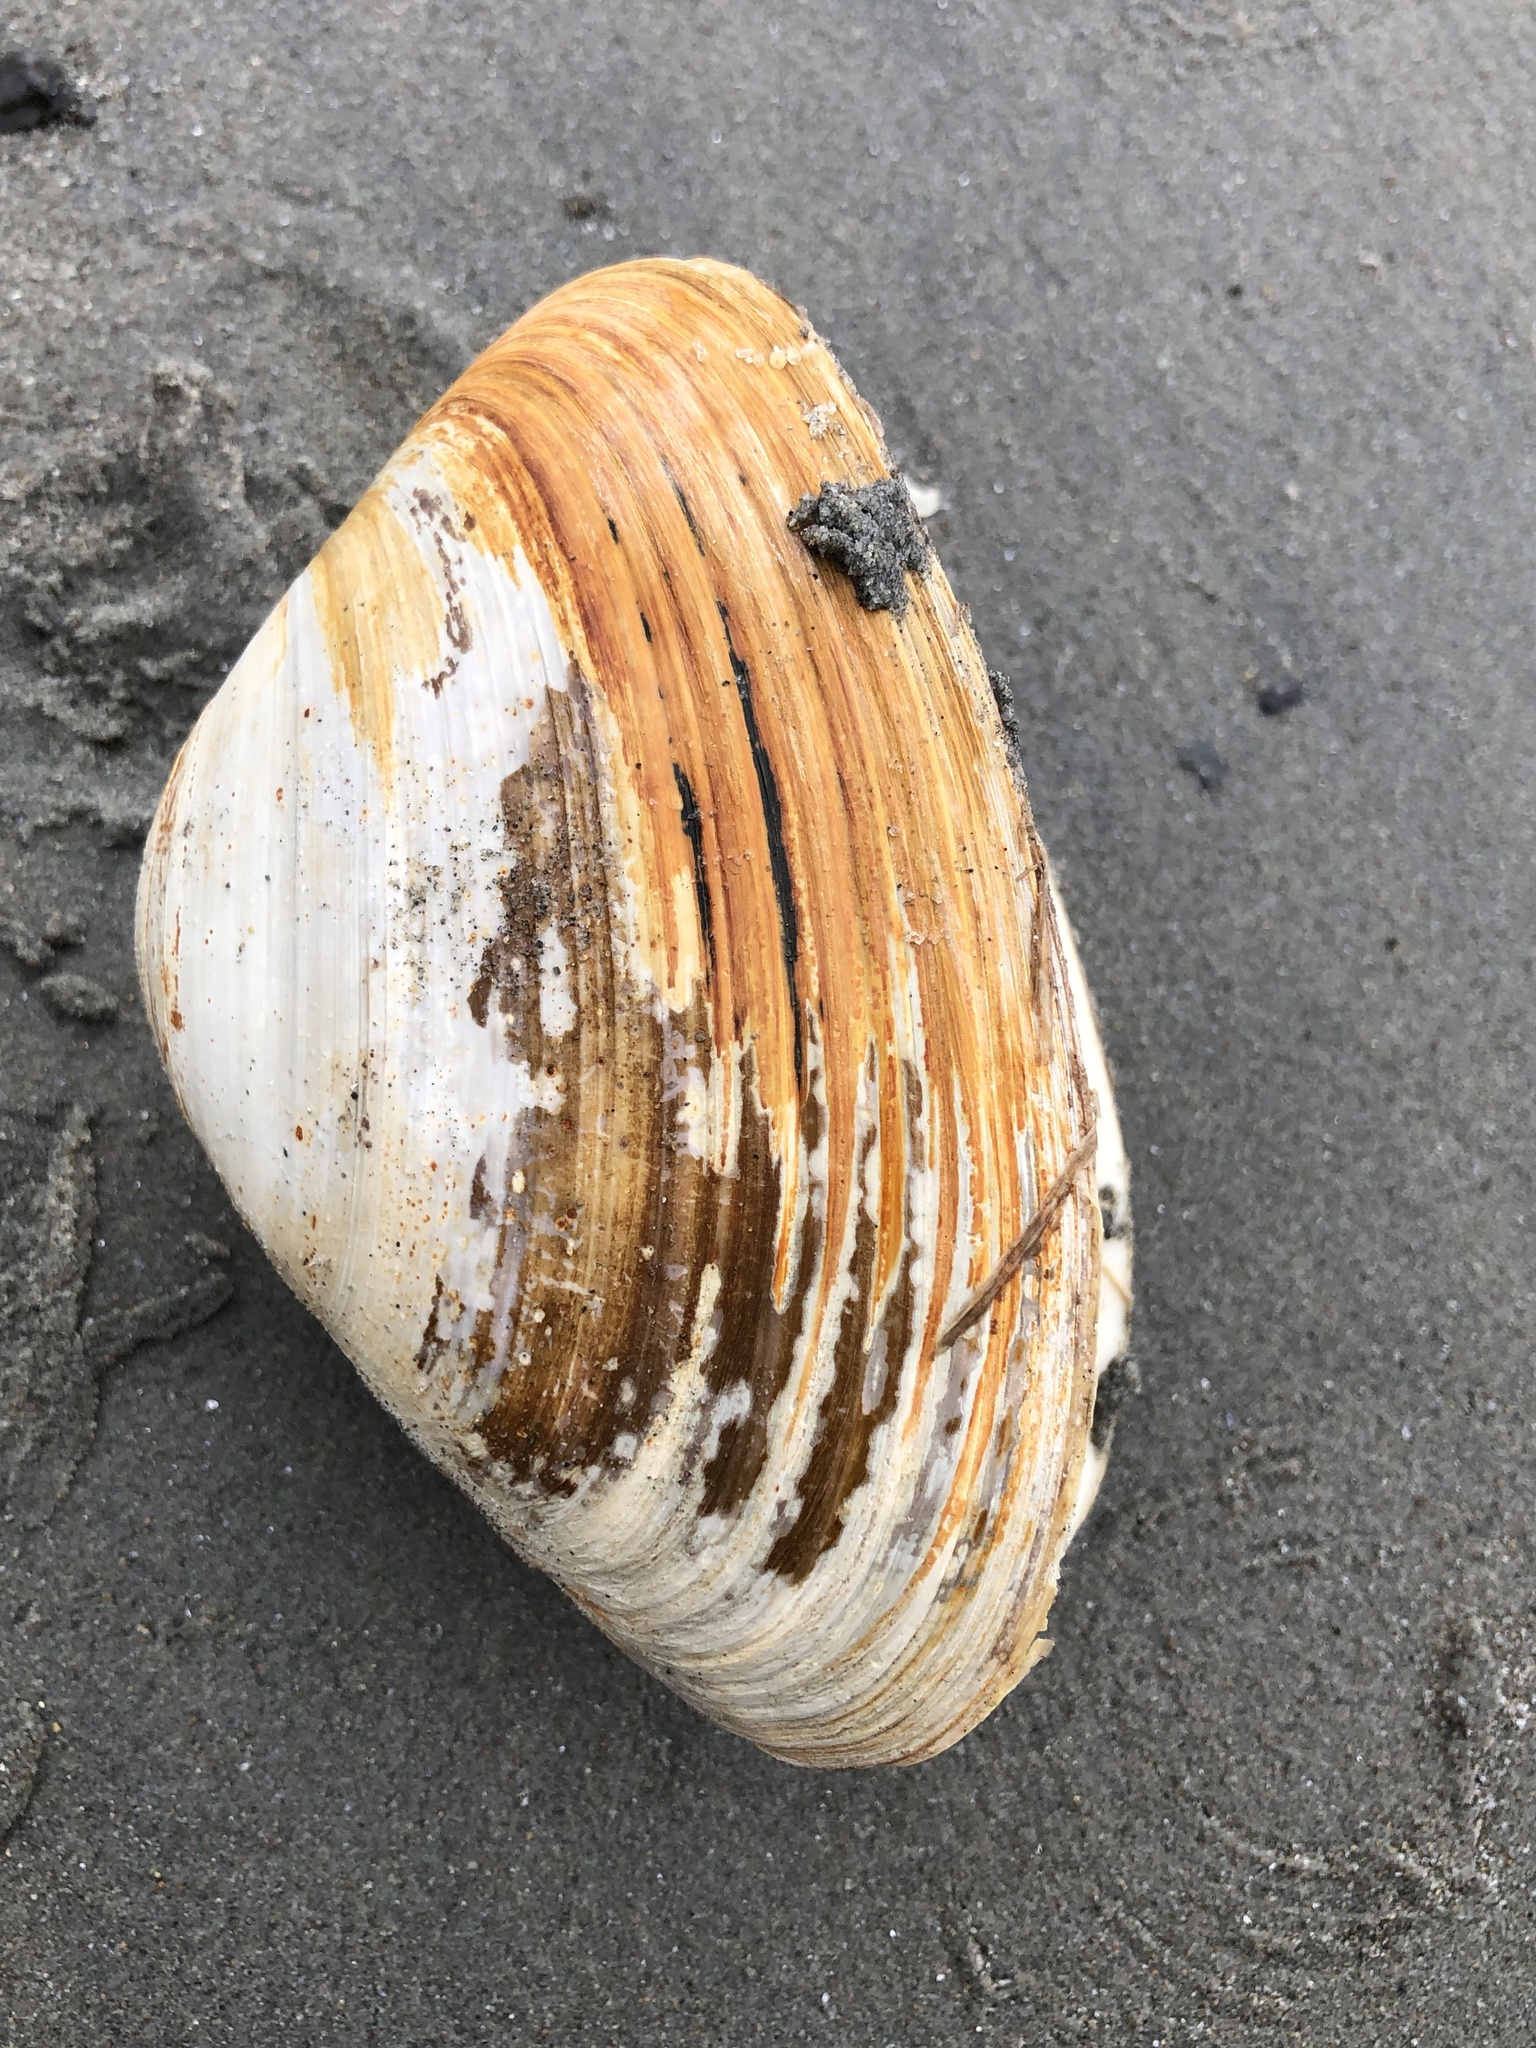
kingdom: Animalia
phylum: Mollusca
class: Bivalvia
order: Venerida
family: Mactridae
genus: Spisula
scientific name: Spisula solidissima
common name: Atlantic surf clam
